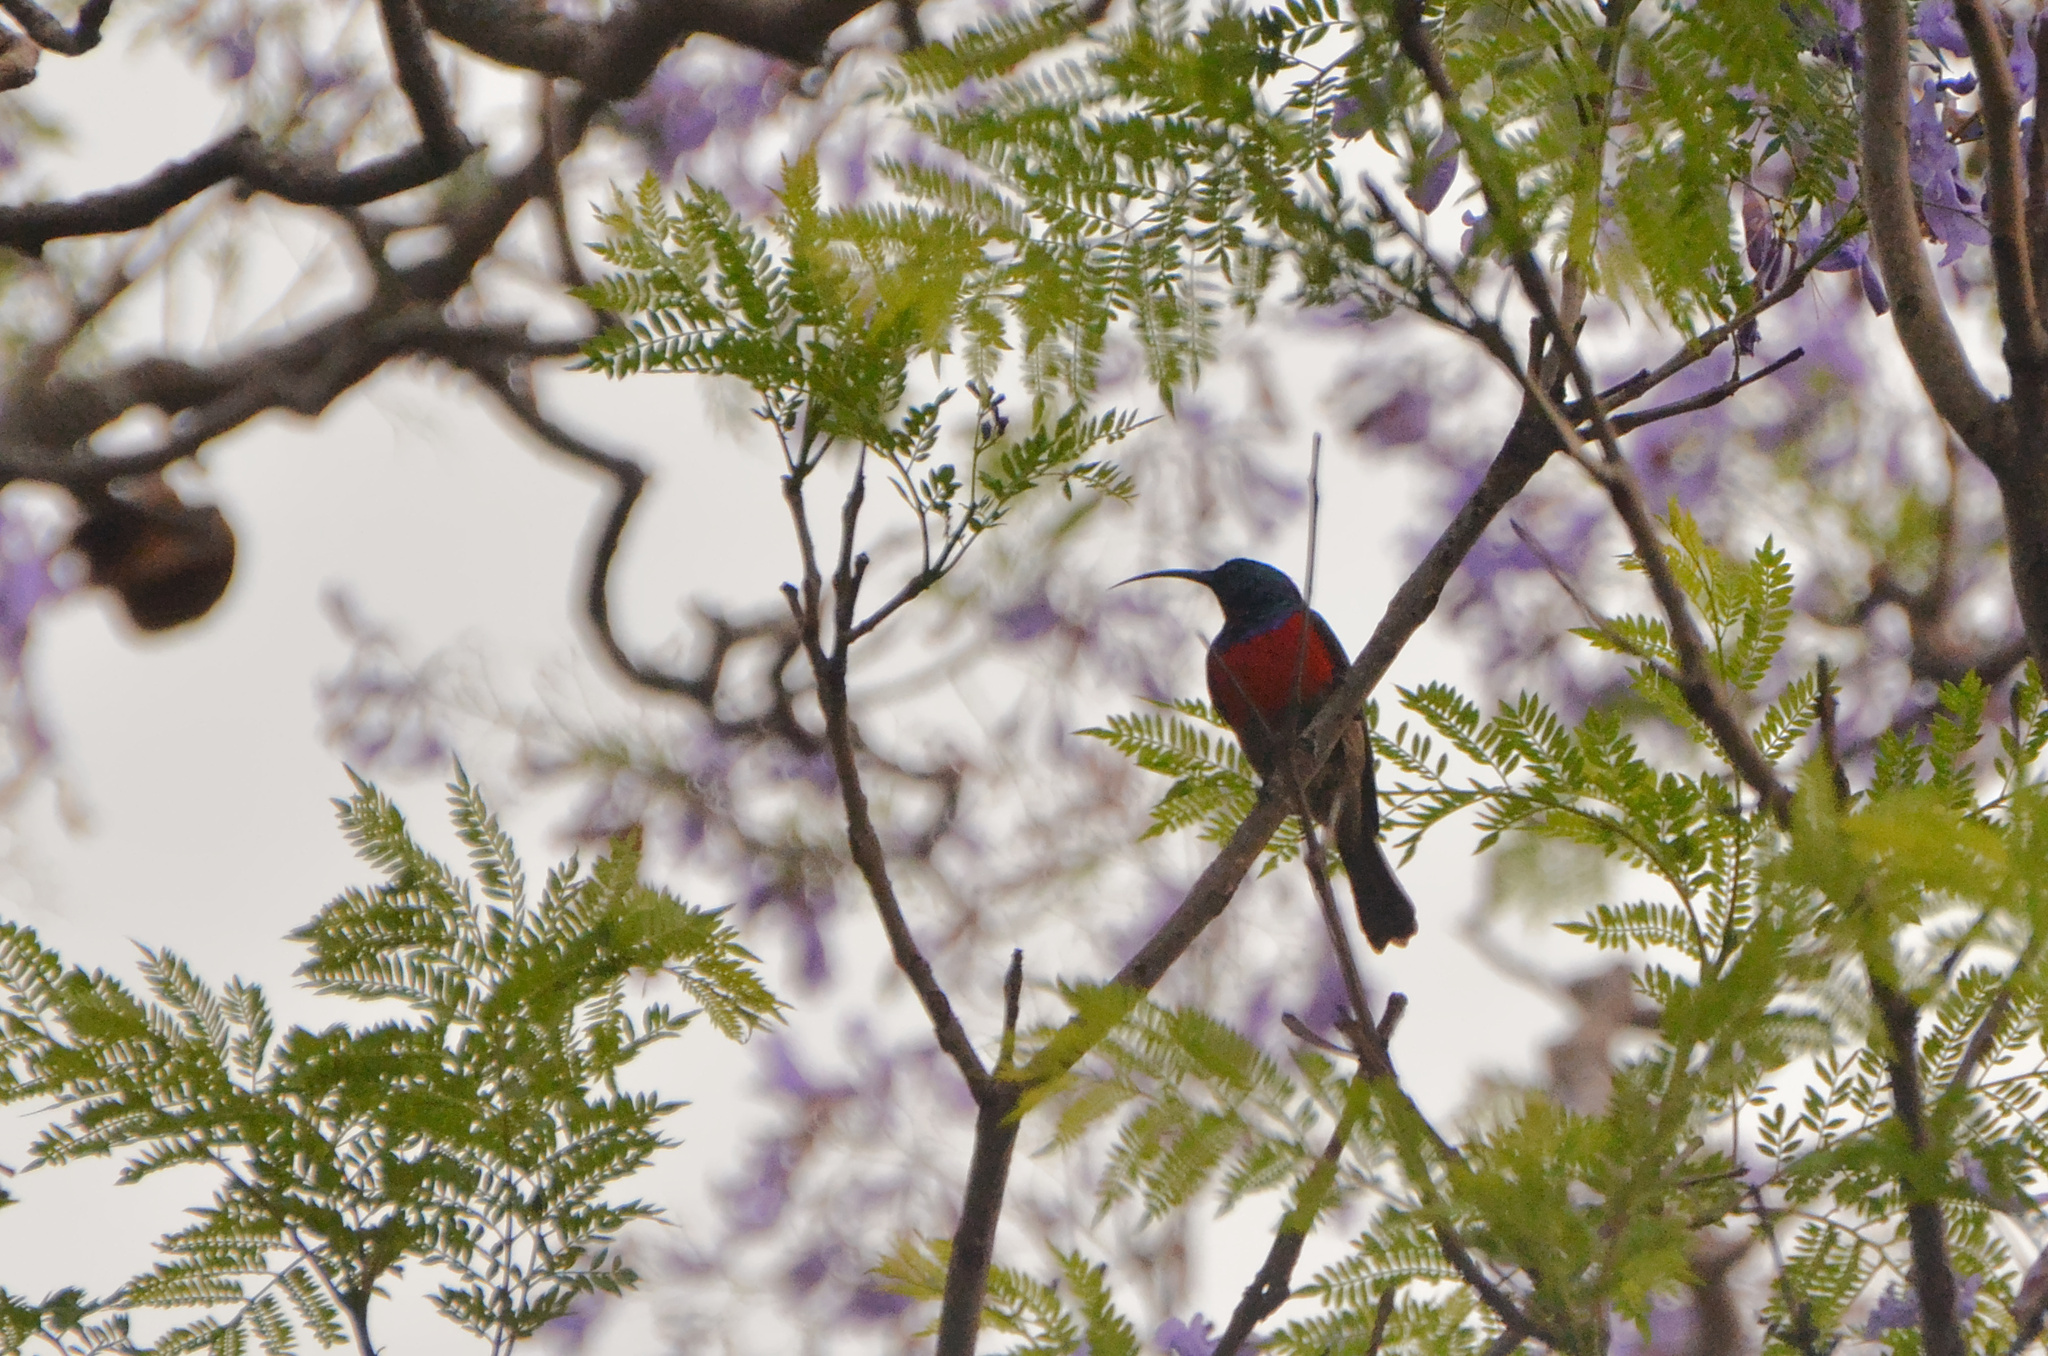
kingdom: Animalia
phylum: Chordata
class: Aves
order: Passeriformes
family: Nectariniidae
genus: Cinnyris
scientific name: Cinnyris afer
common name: Greater double-collared sunbird
